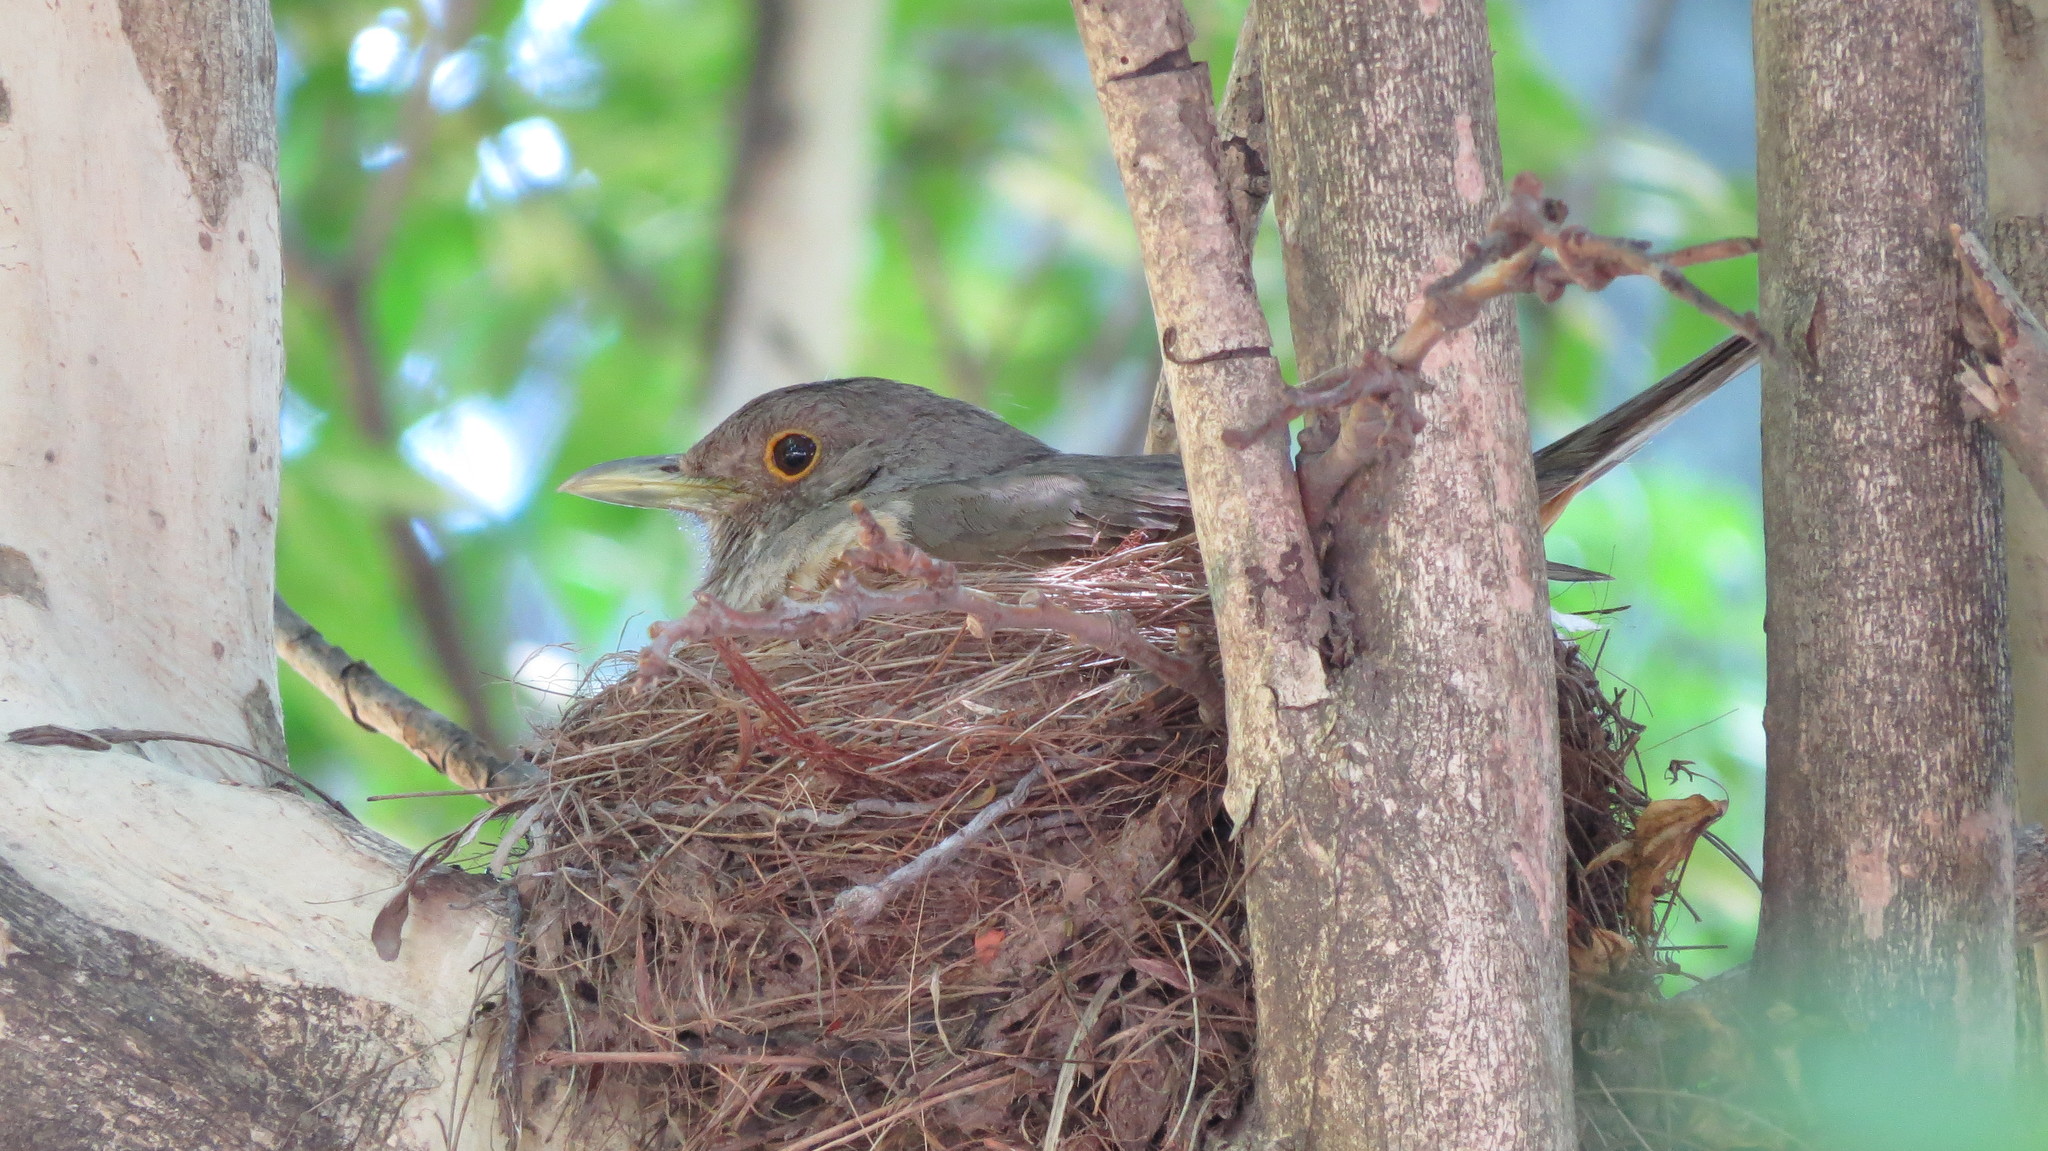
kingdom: Animalia
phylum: Chordata
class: Aves
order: Passeriformes
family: Turdidae
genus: Turdus
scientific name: Turdus rufiventris
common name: Rufous-bellied thrush
